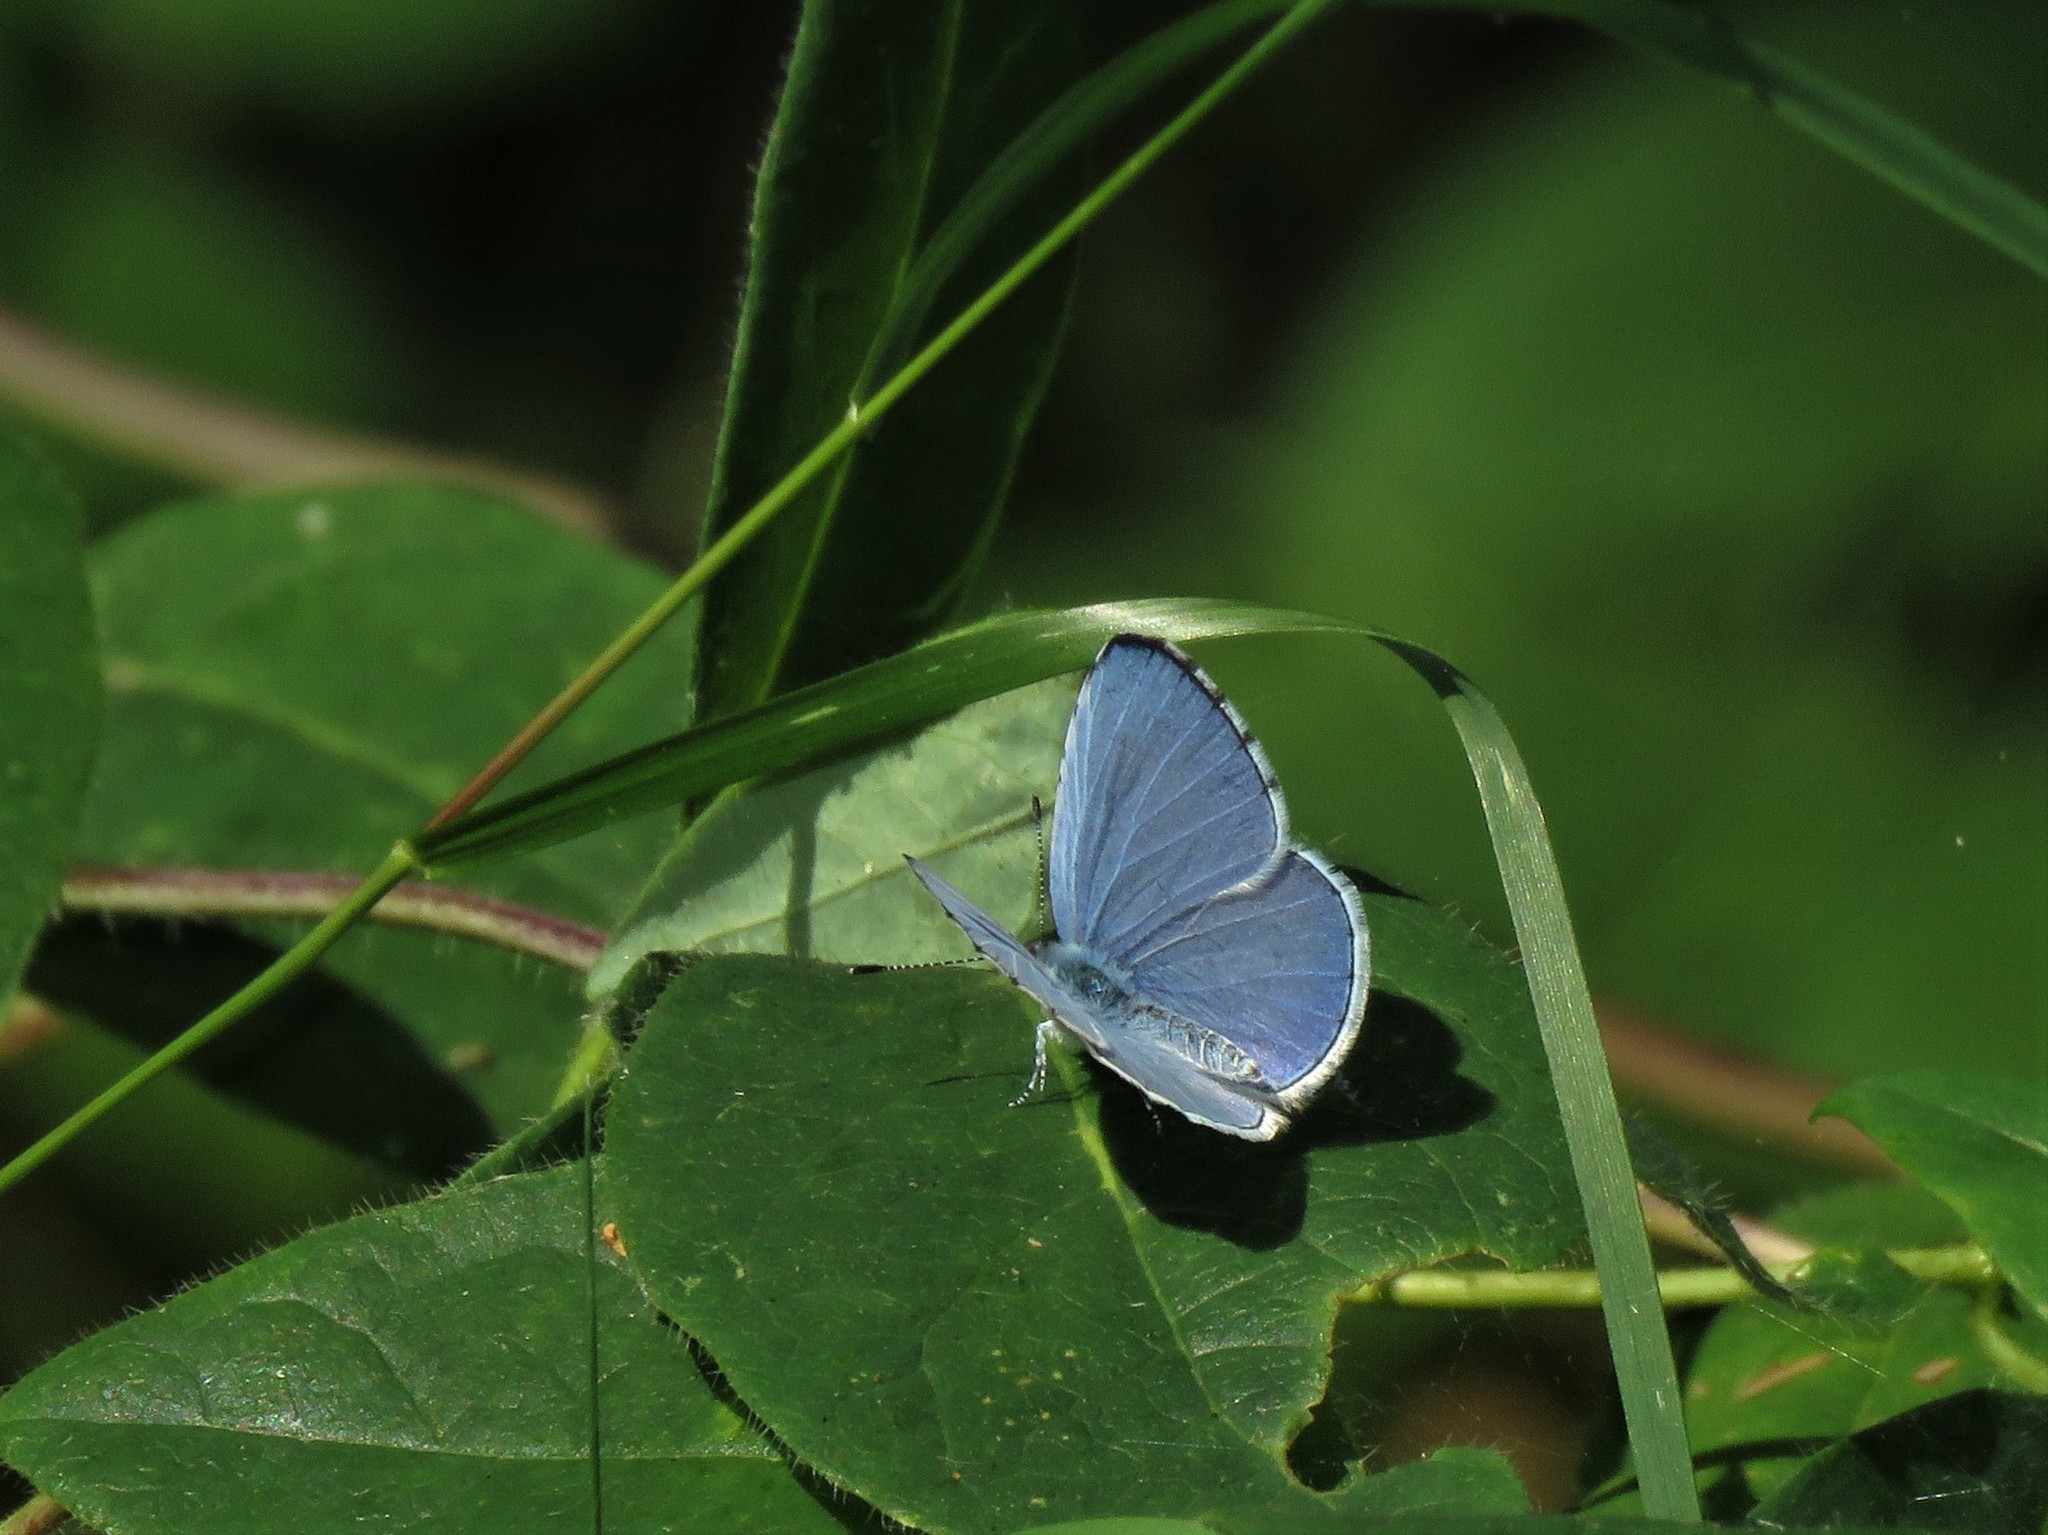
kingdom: Animalia
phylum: Arthropoda
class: Insecta
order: Lepidoptera
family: Lycaenidae
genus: Celastrina
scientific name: Celastrina argiolus
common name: Holly blue
